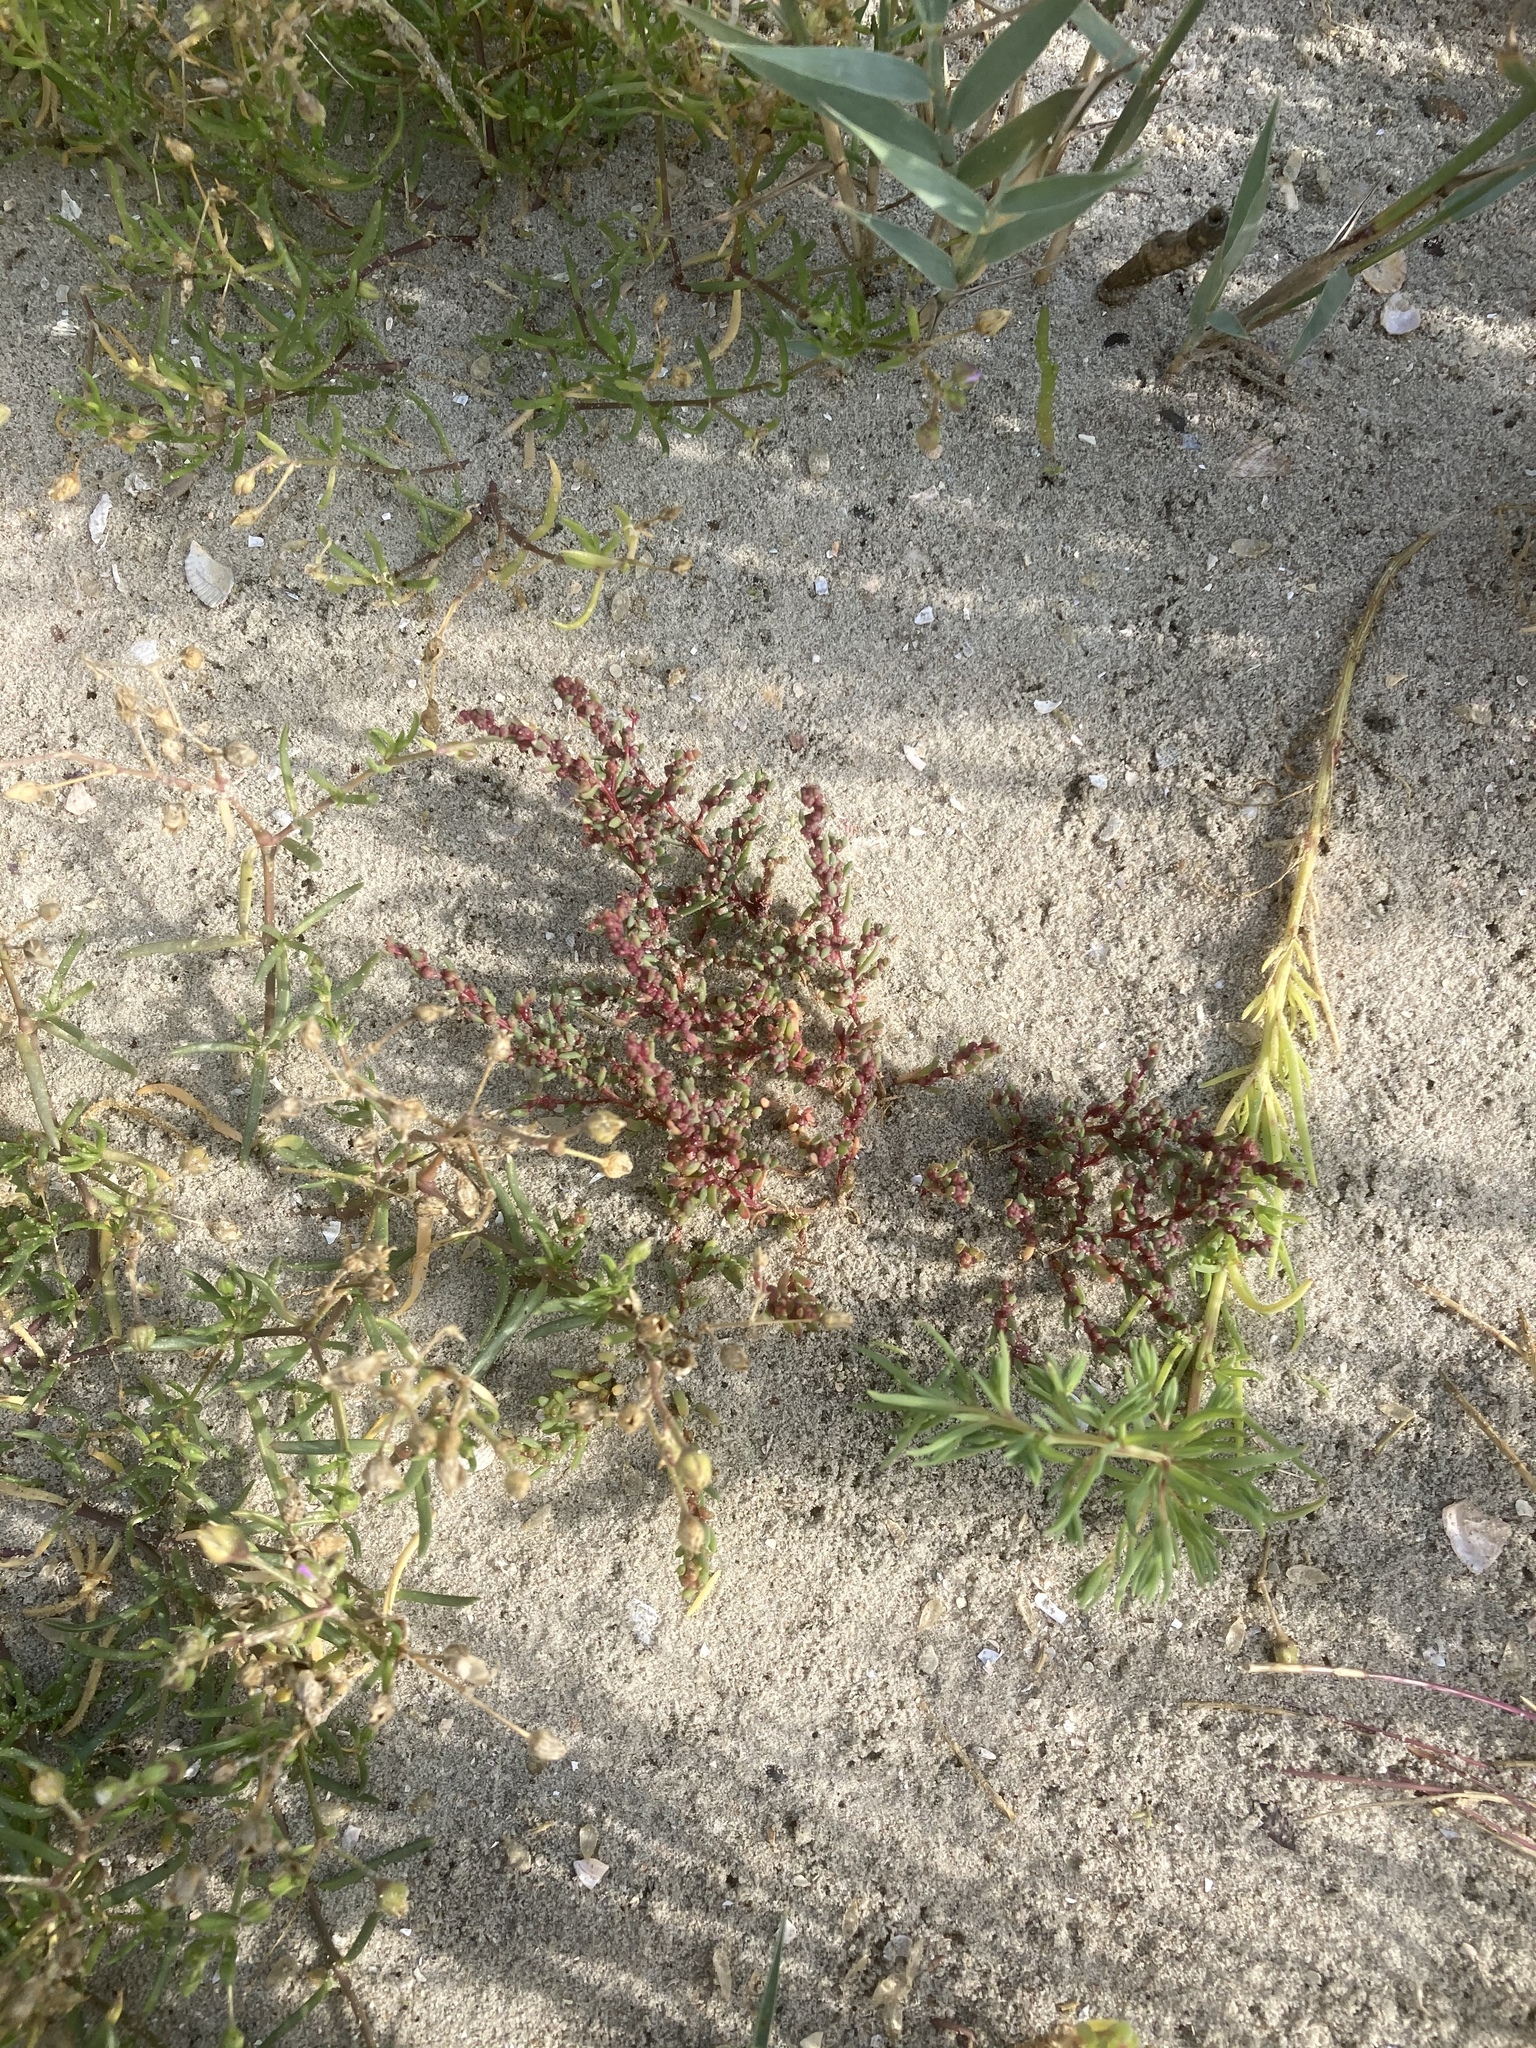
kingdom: Plantae
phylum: Tracheophyta
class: Magnoliopsida
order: Caryophyllales
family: Amaranthaceae
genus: Suaeda
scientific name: Suaeda maritima
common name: Annual sea-blite
